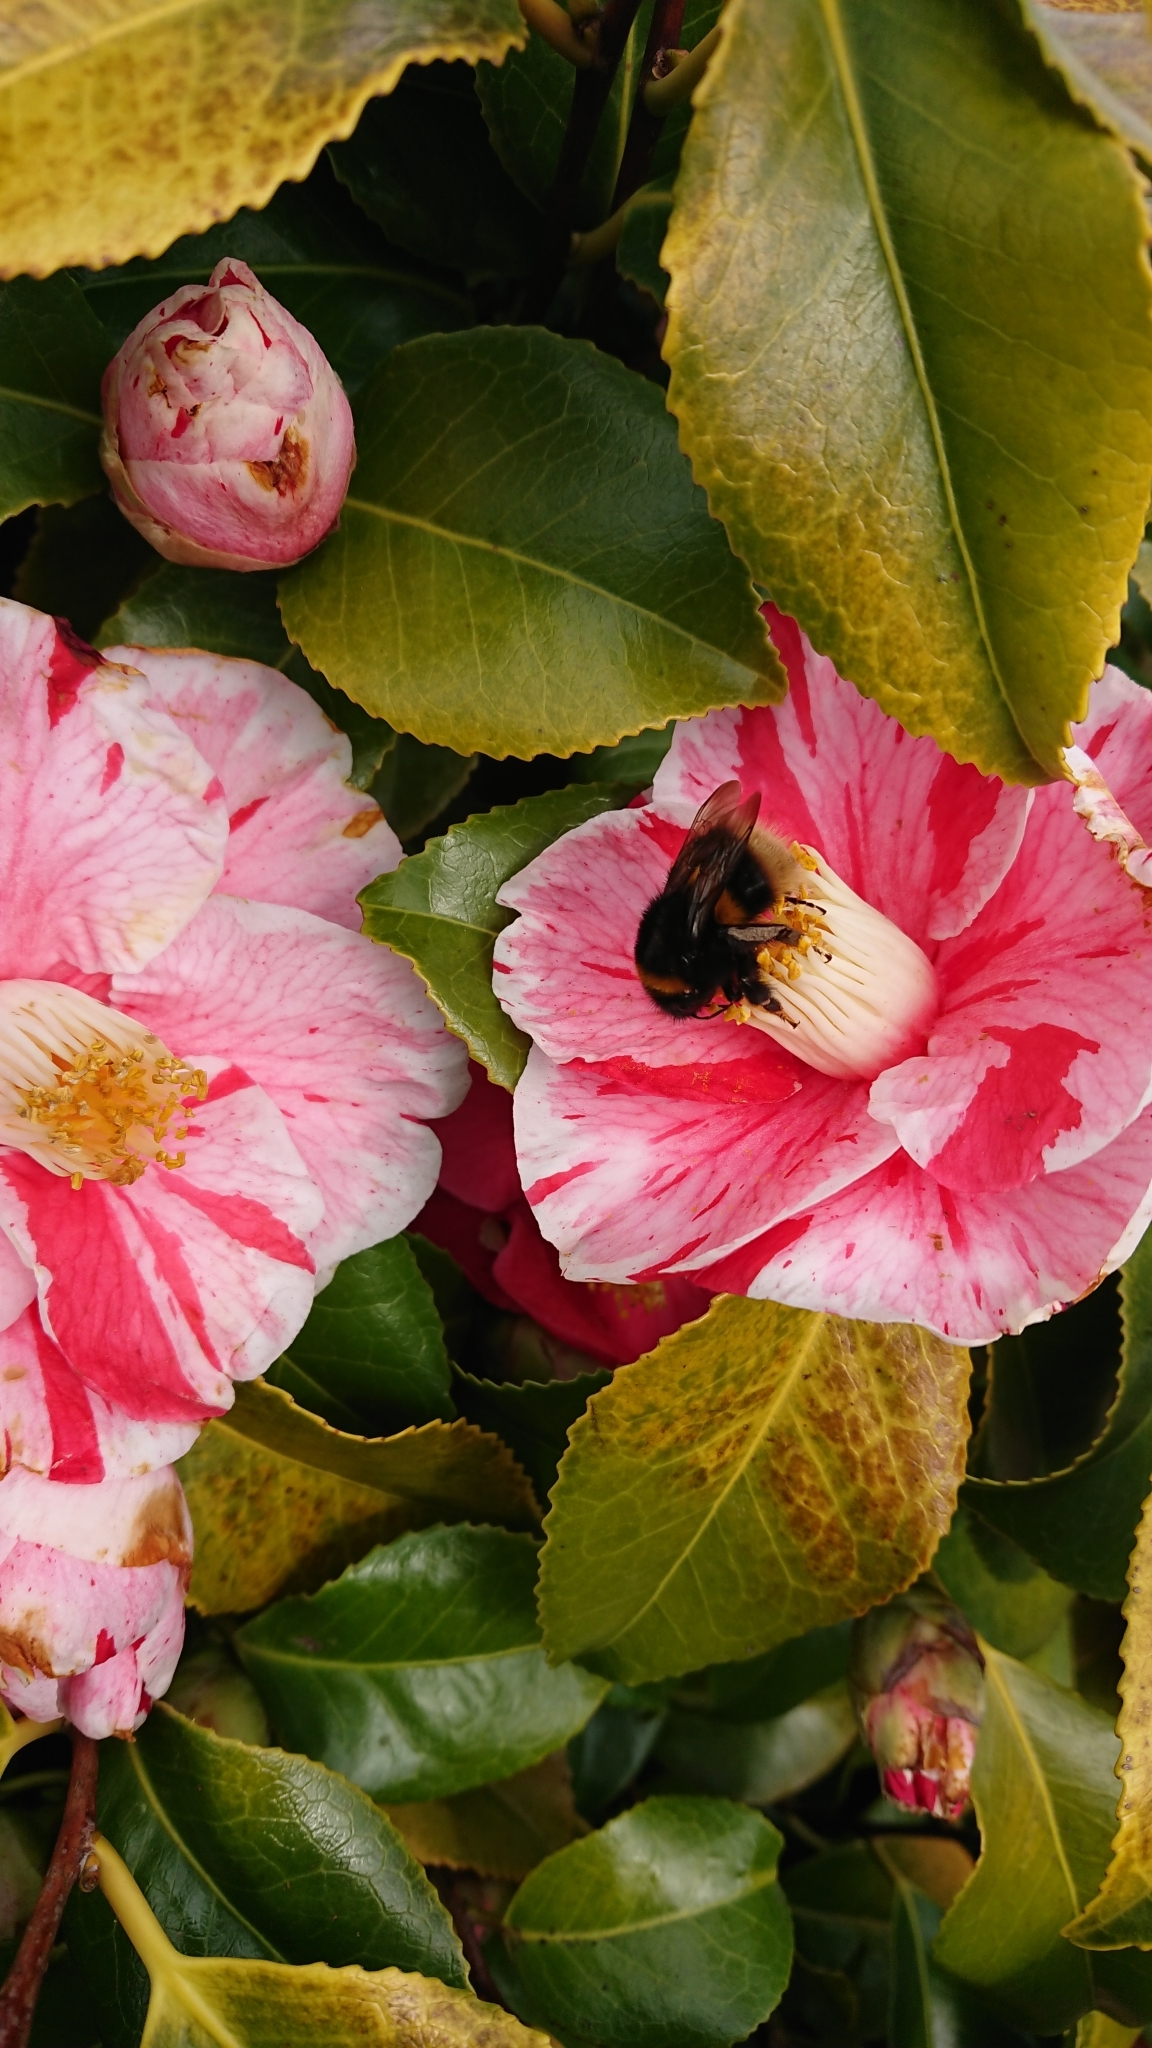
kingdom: Animalia
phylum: Arthropoda
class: Insecta
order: Hymenoptera
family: Apidae
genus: Bombus
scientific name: Bombus terrestris
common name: Buff-tailed bumblebee
